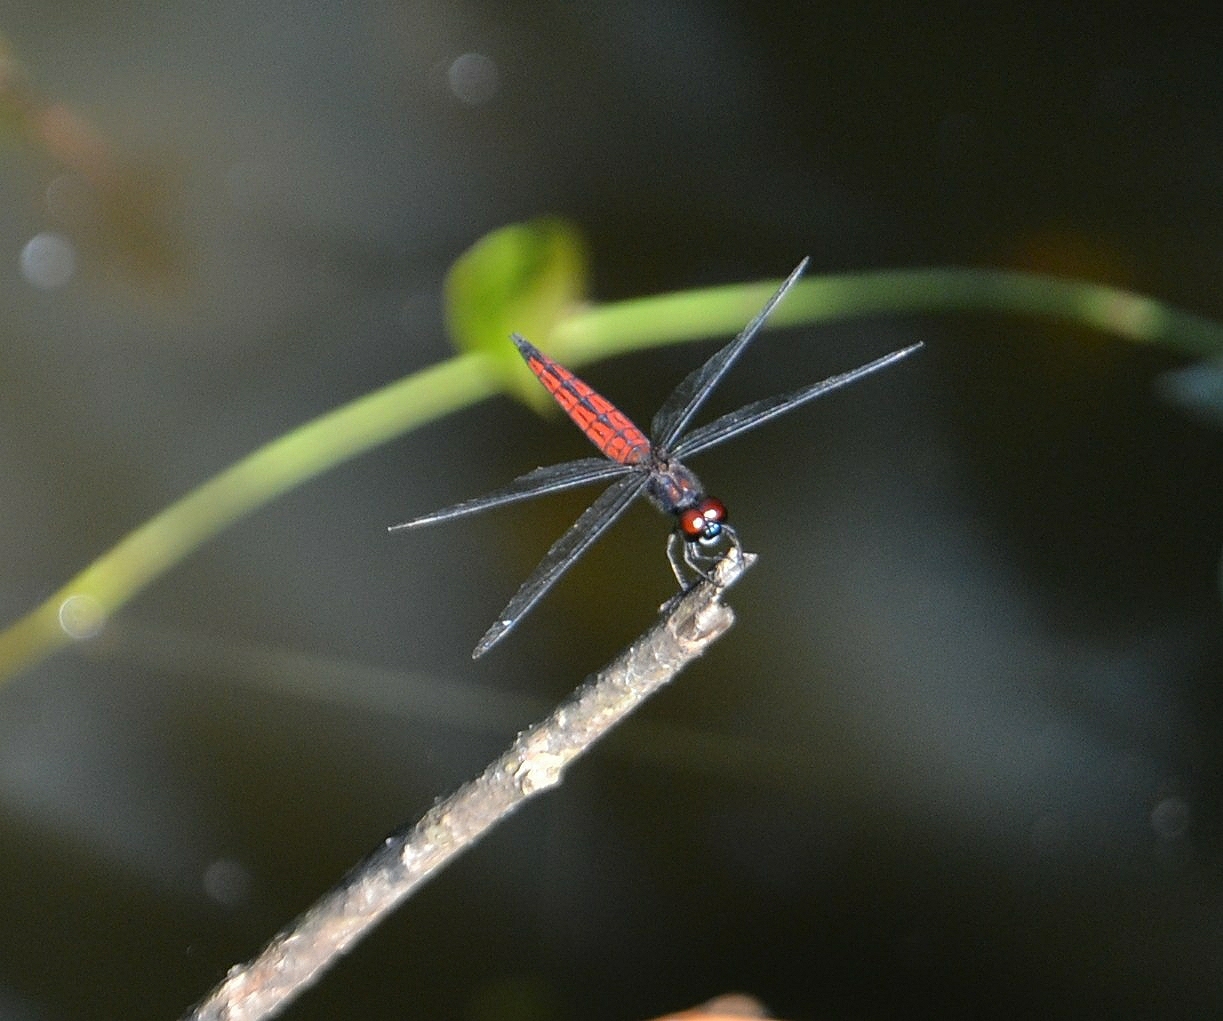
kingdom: Animalia
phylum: Arthropoda
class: Insecta
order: Odonata
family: Libellulidae
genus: Lyriothemis
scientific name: Lyriothemis acigastra
